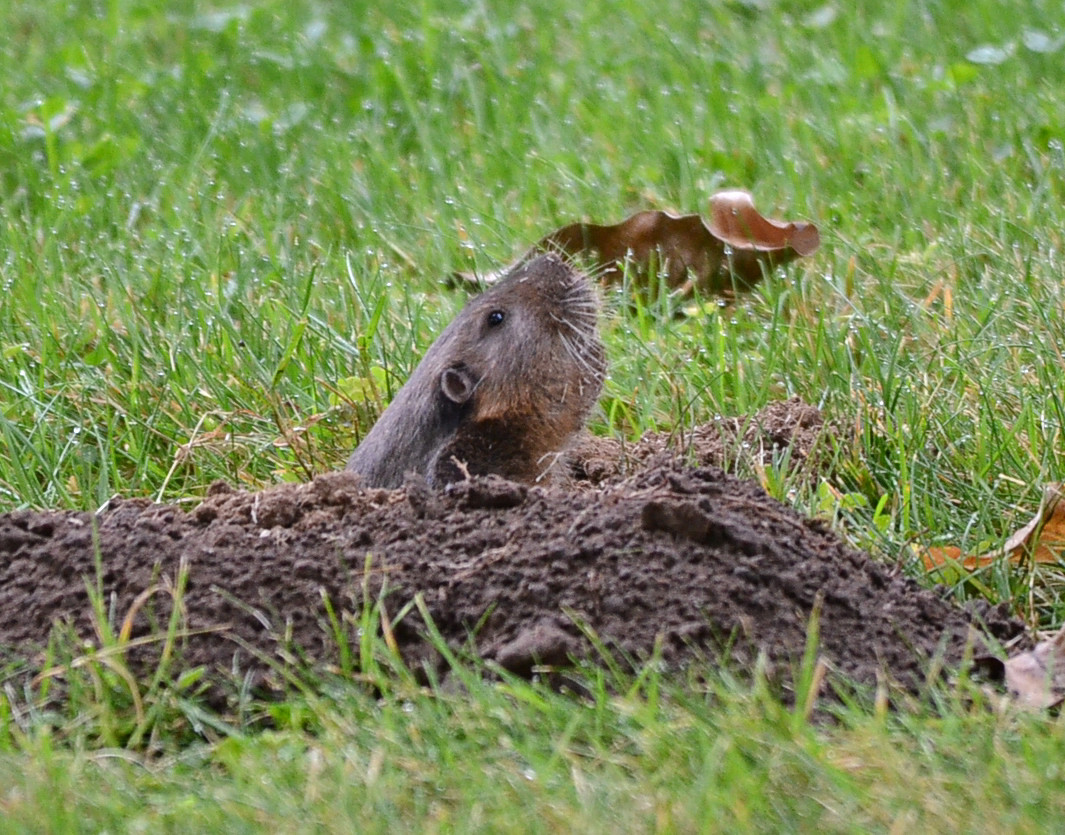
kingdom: Animalia
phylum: Chordata
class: Mammalia
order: Rodentia
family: Geomyidae
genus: Thomomys
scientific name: Thomomys bottae
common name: Botta's pocket gopher
